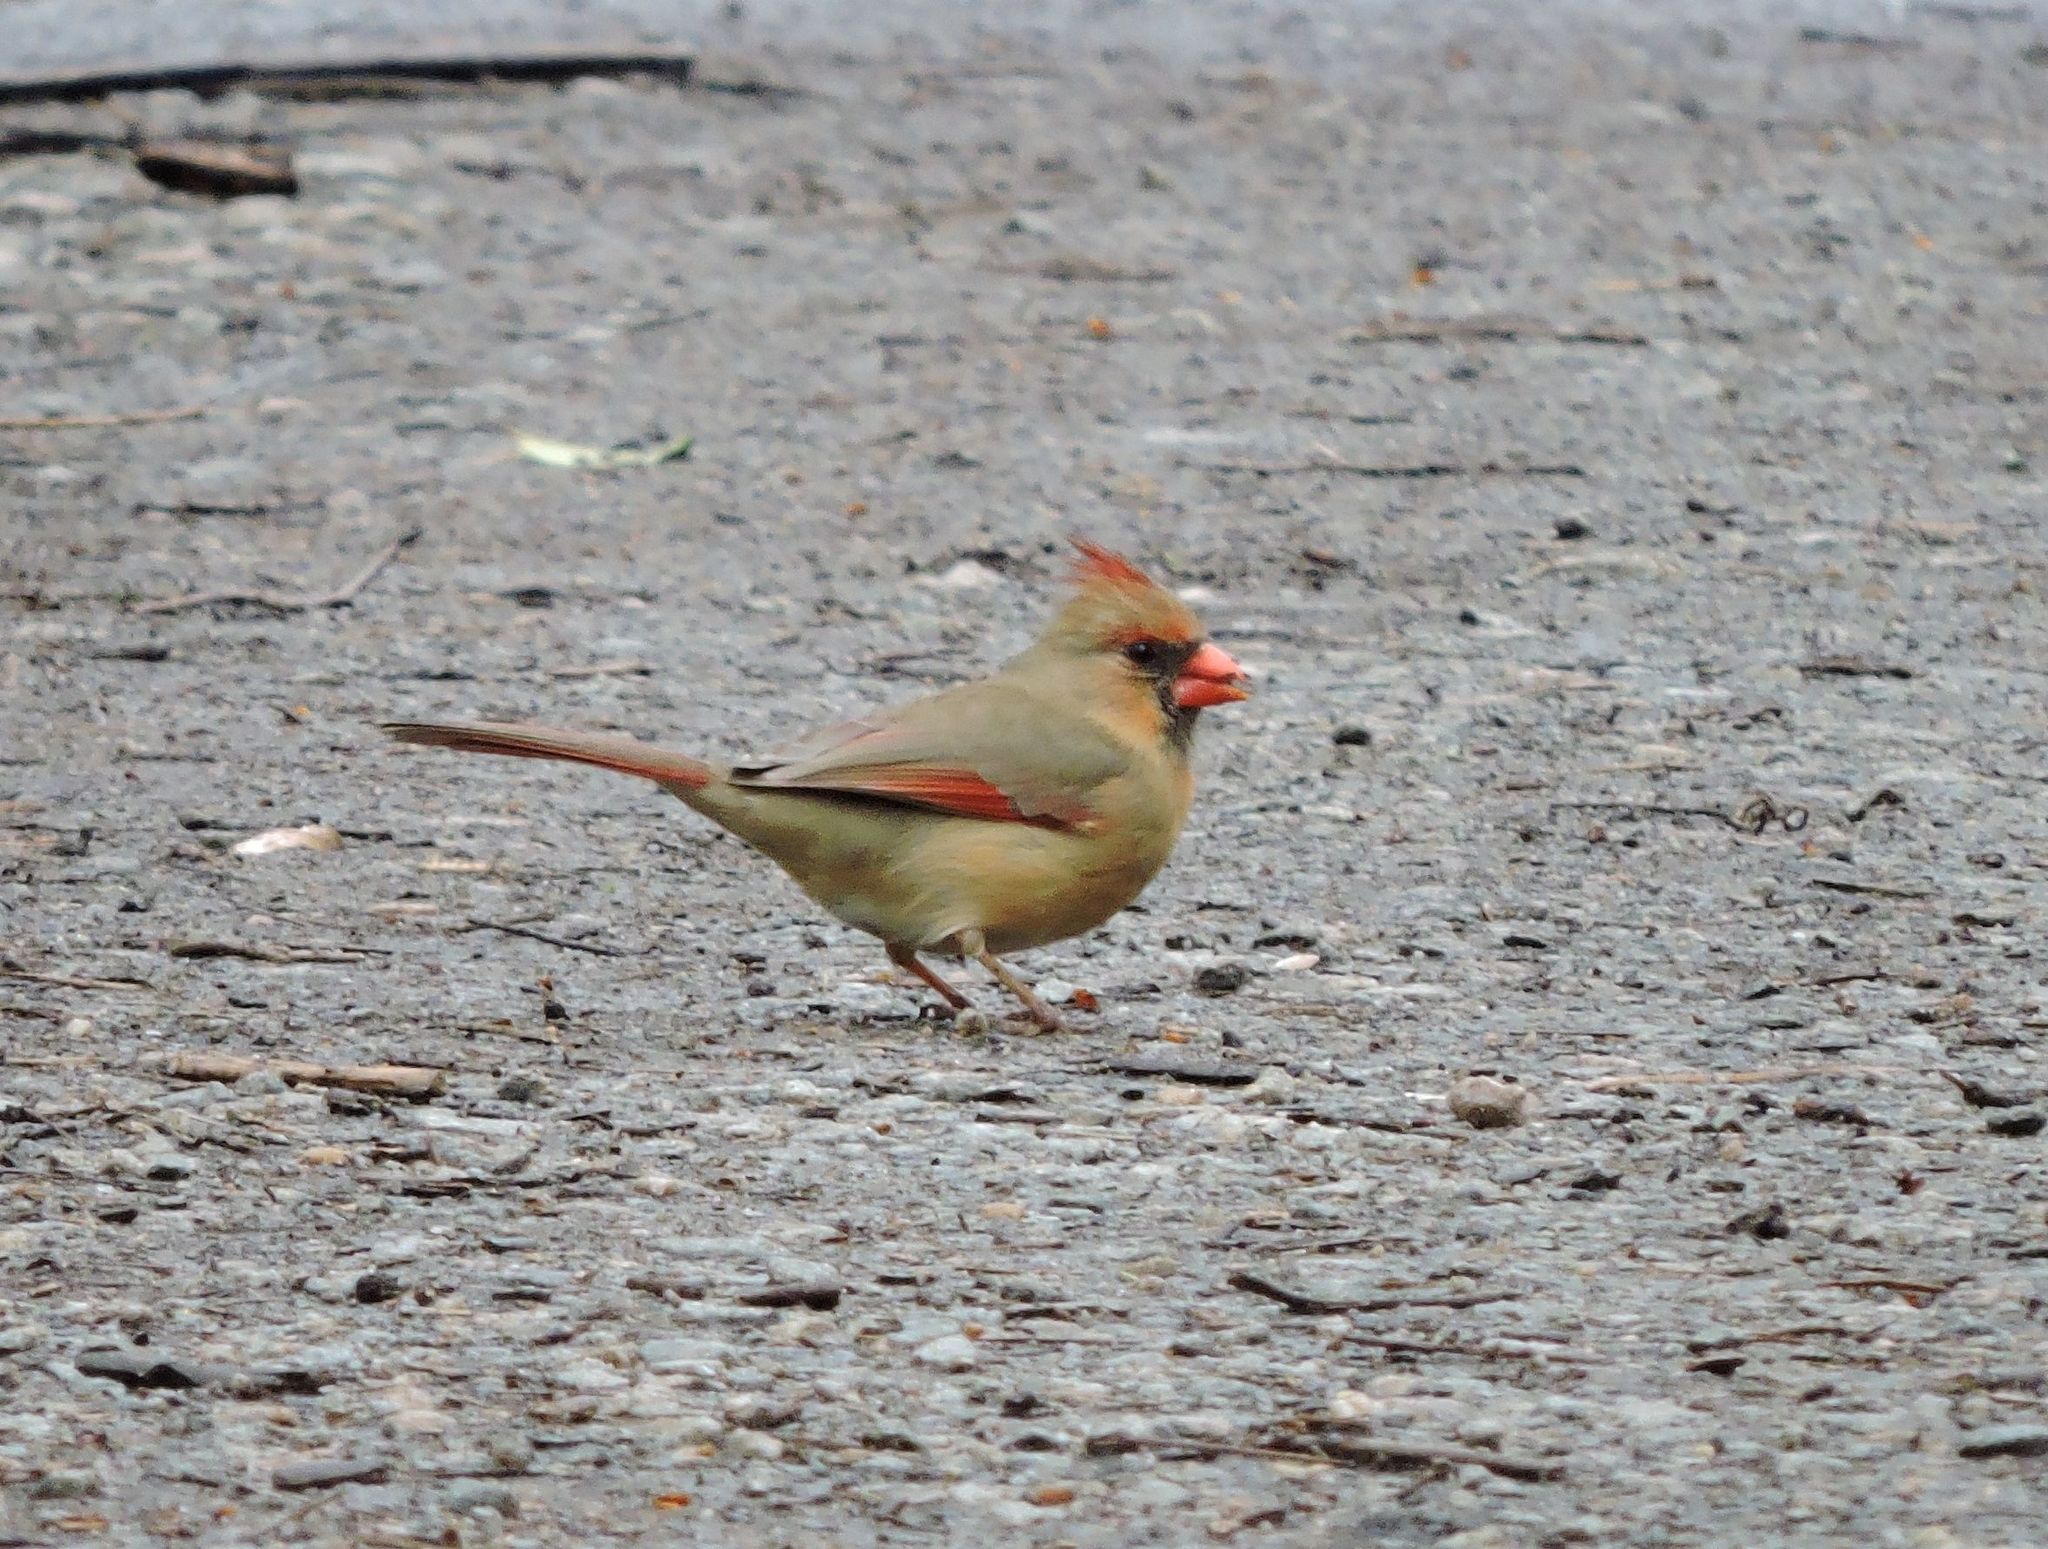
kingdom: Animalia
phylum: Chordata
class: Aves
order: Passeriformes
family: Cardinalidae
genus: Cardinalis
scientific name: Cardinalis cardinalis
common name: Northern cardinal
